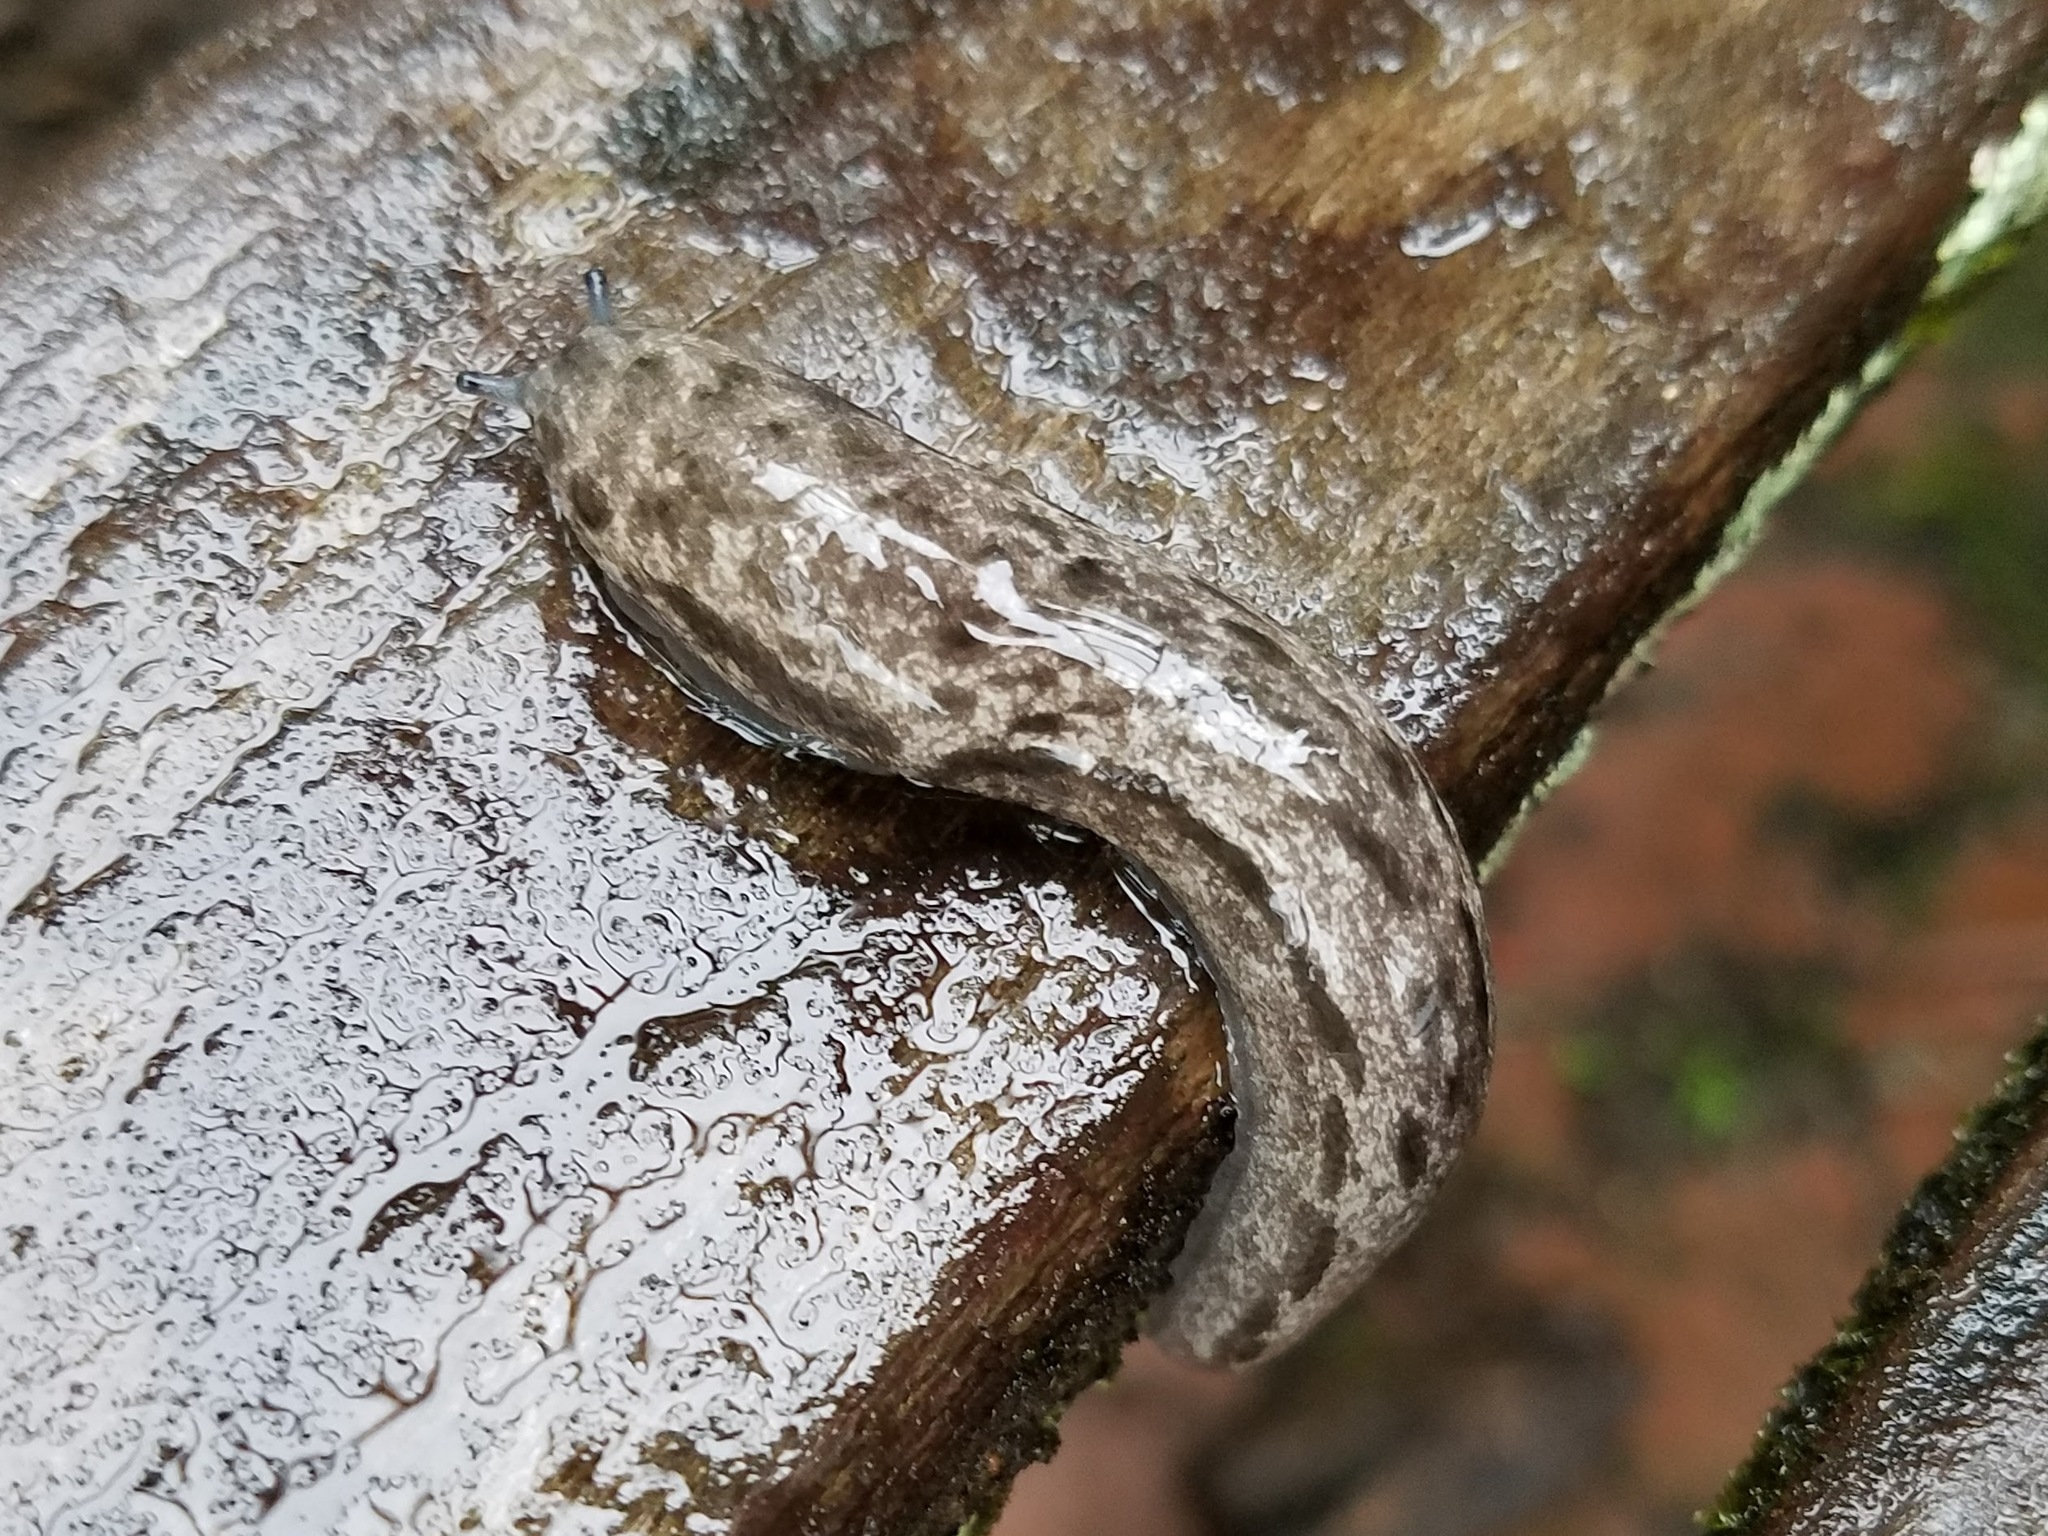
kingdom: Animalia
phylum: Mollusca
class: Gastropoda
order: Stylommatophora
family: Philomycidae
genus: Megapallifera
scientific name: Megapallifera mutabilis
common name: Changeable mantleslug
